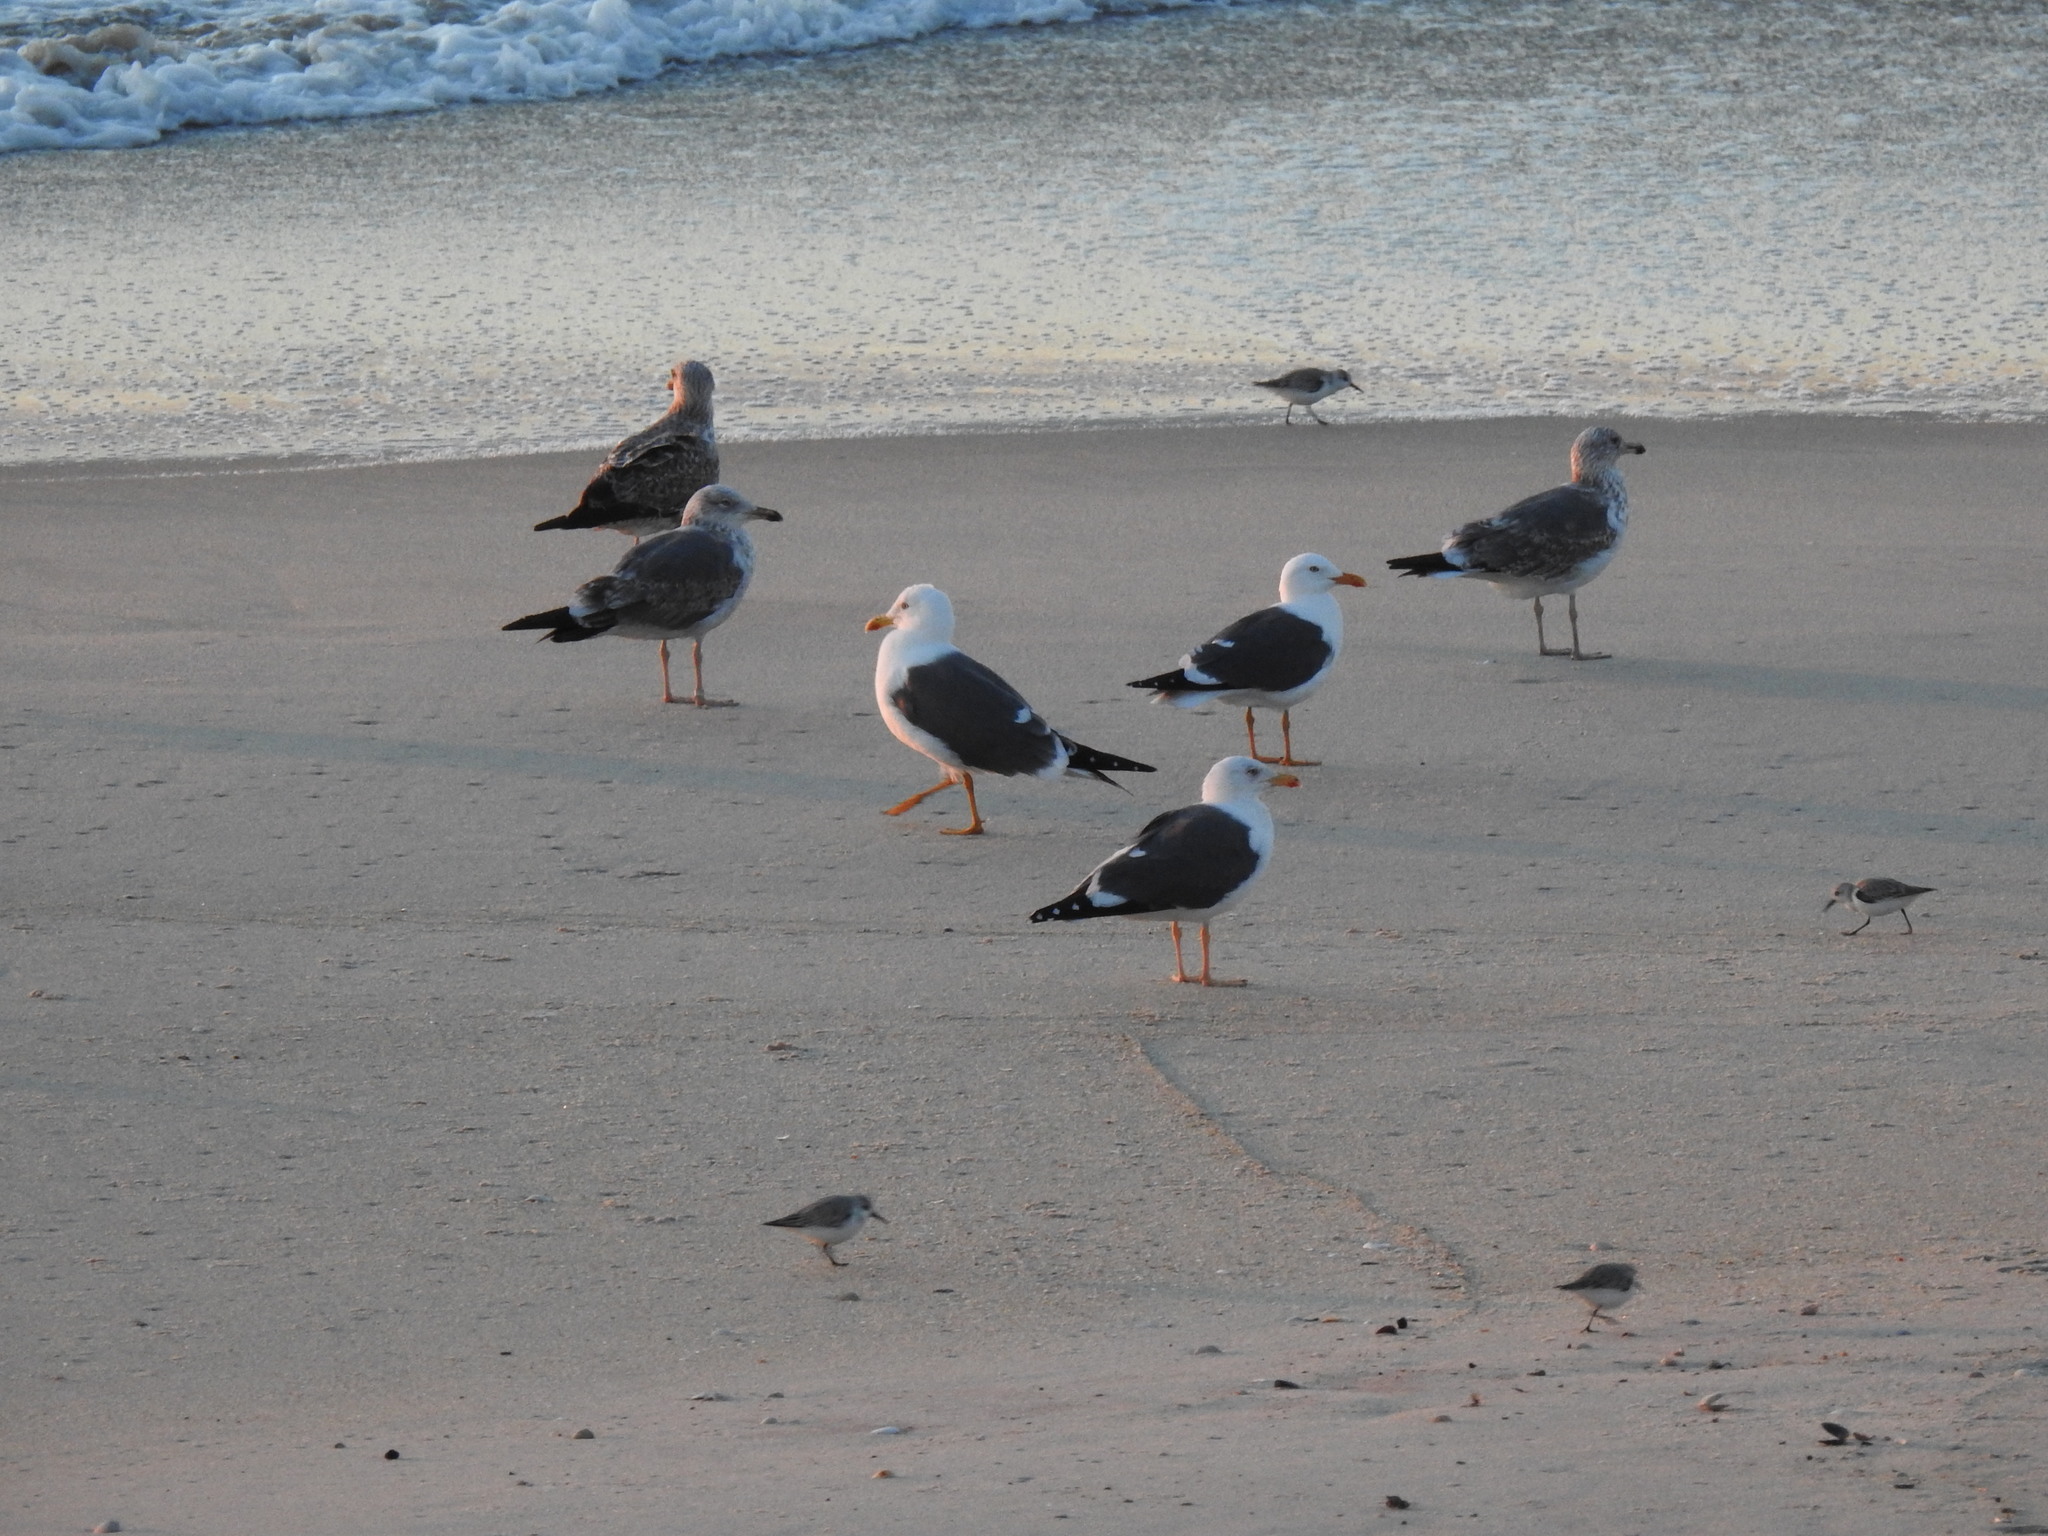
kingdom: Animalia
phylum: Chordata
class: Aves
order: Charadriiformes
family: Laridae
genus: Larus
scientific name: Larus fuscus
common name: Lesser black-backed gull
